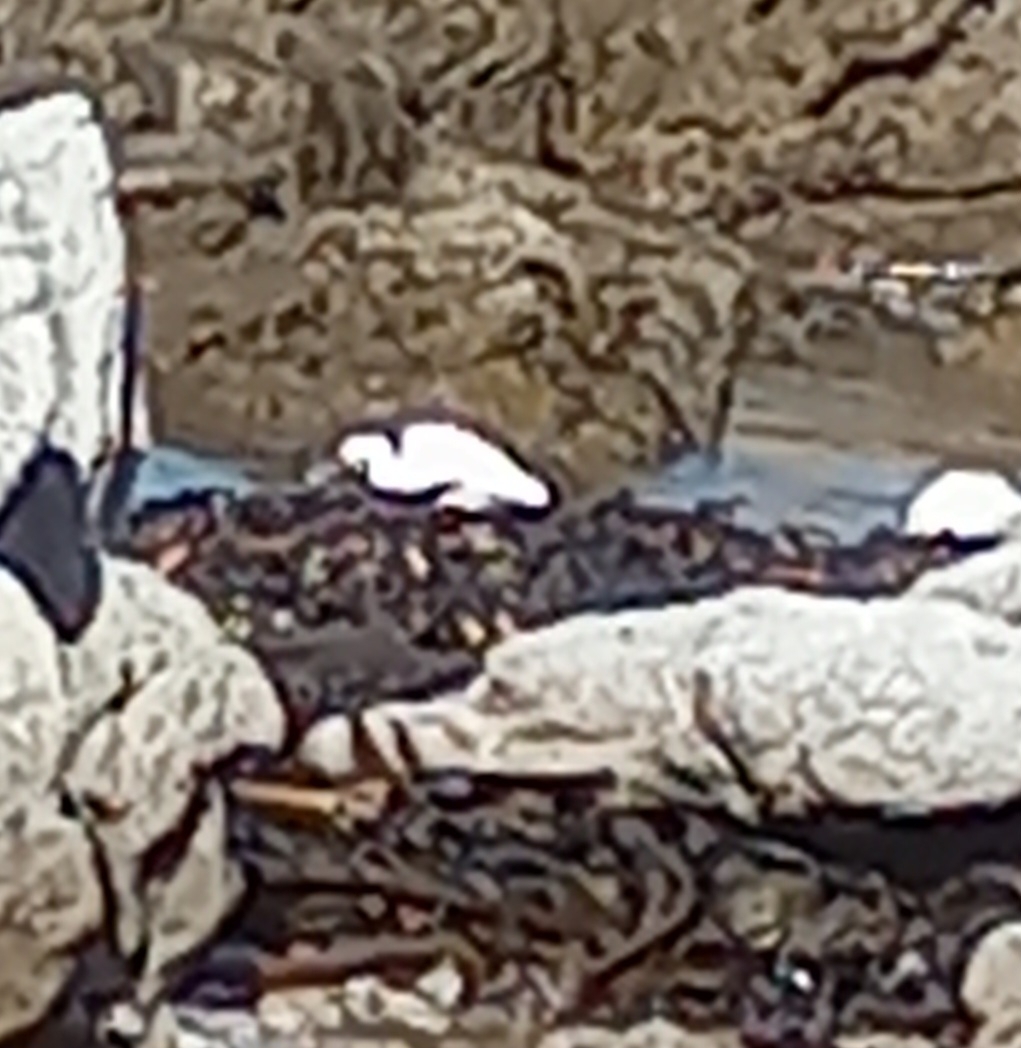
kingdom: Animalia
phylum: Chordata
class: Aves
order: Pelecaniformes
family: Ardeidae
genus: Egretta
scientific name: Egretta garzetta
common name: Little egret
